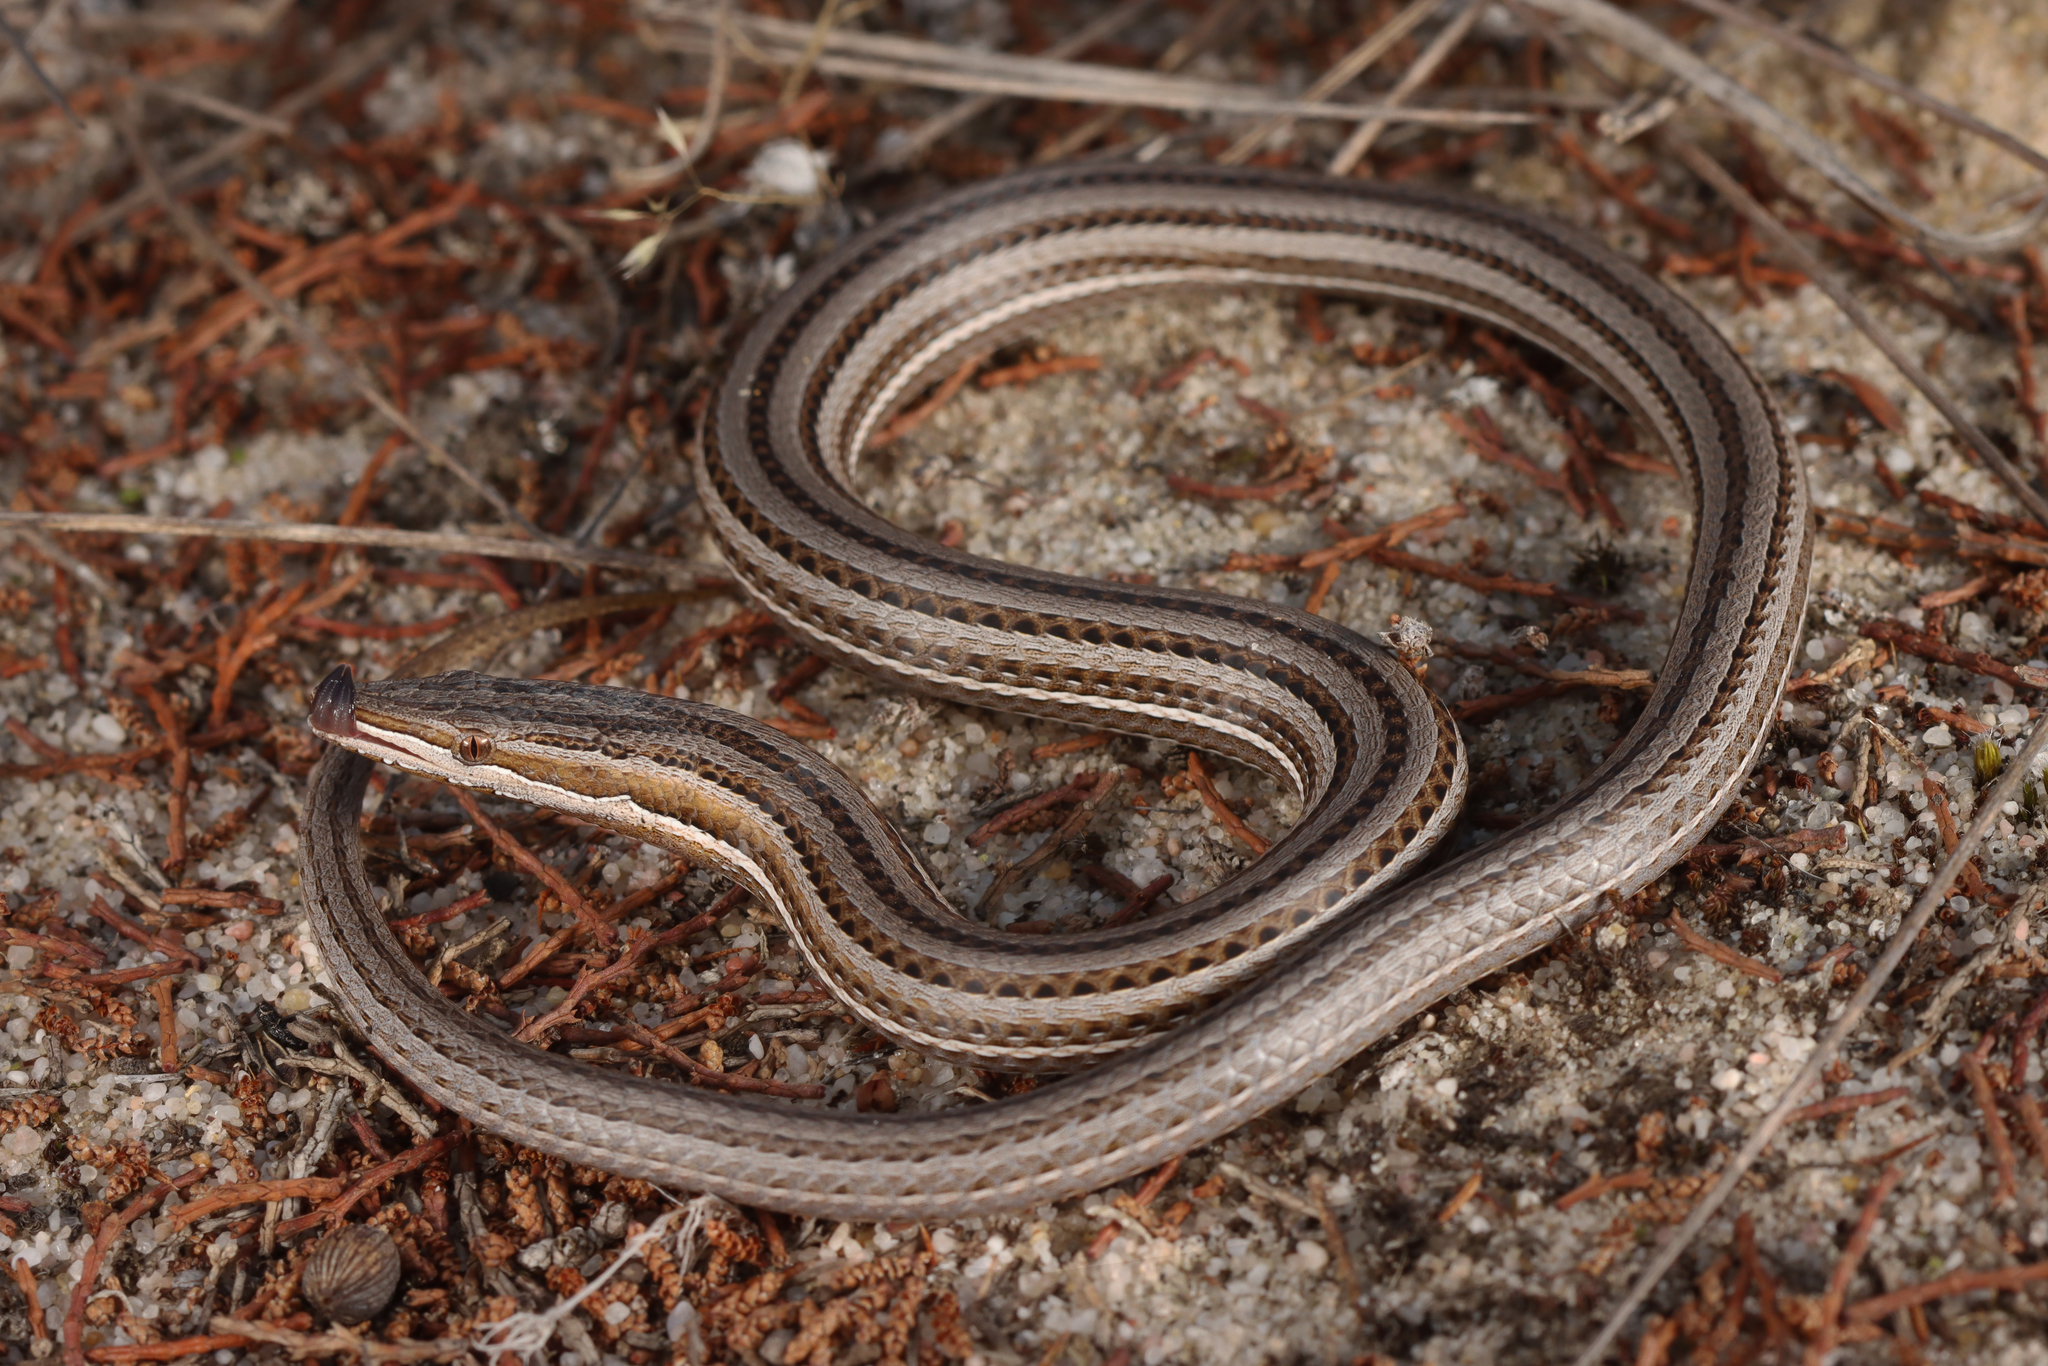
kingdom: Animalia
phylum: Chordata
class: Squamata
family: Pygopodidae
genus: Lialis
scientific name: Lialis burtonis
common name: Burton's legless lizard
